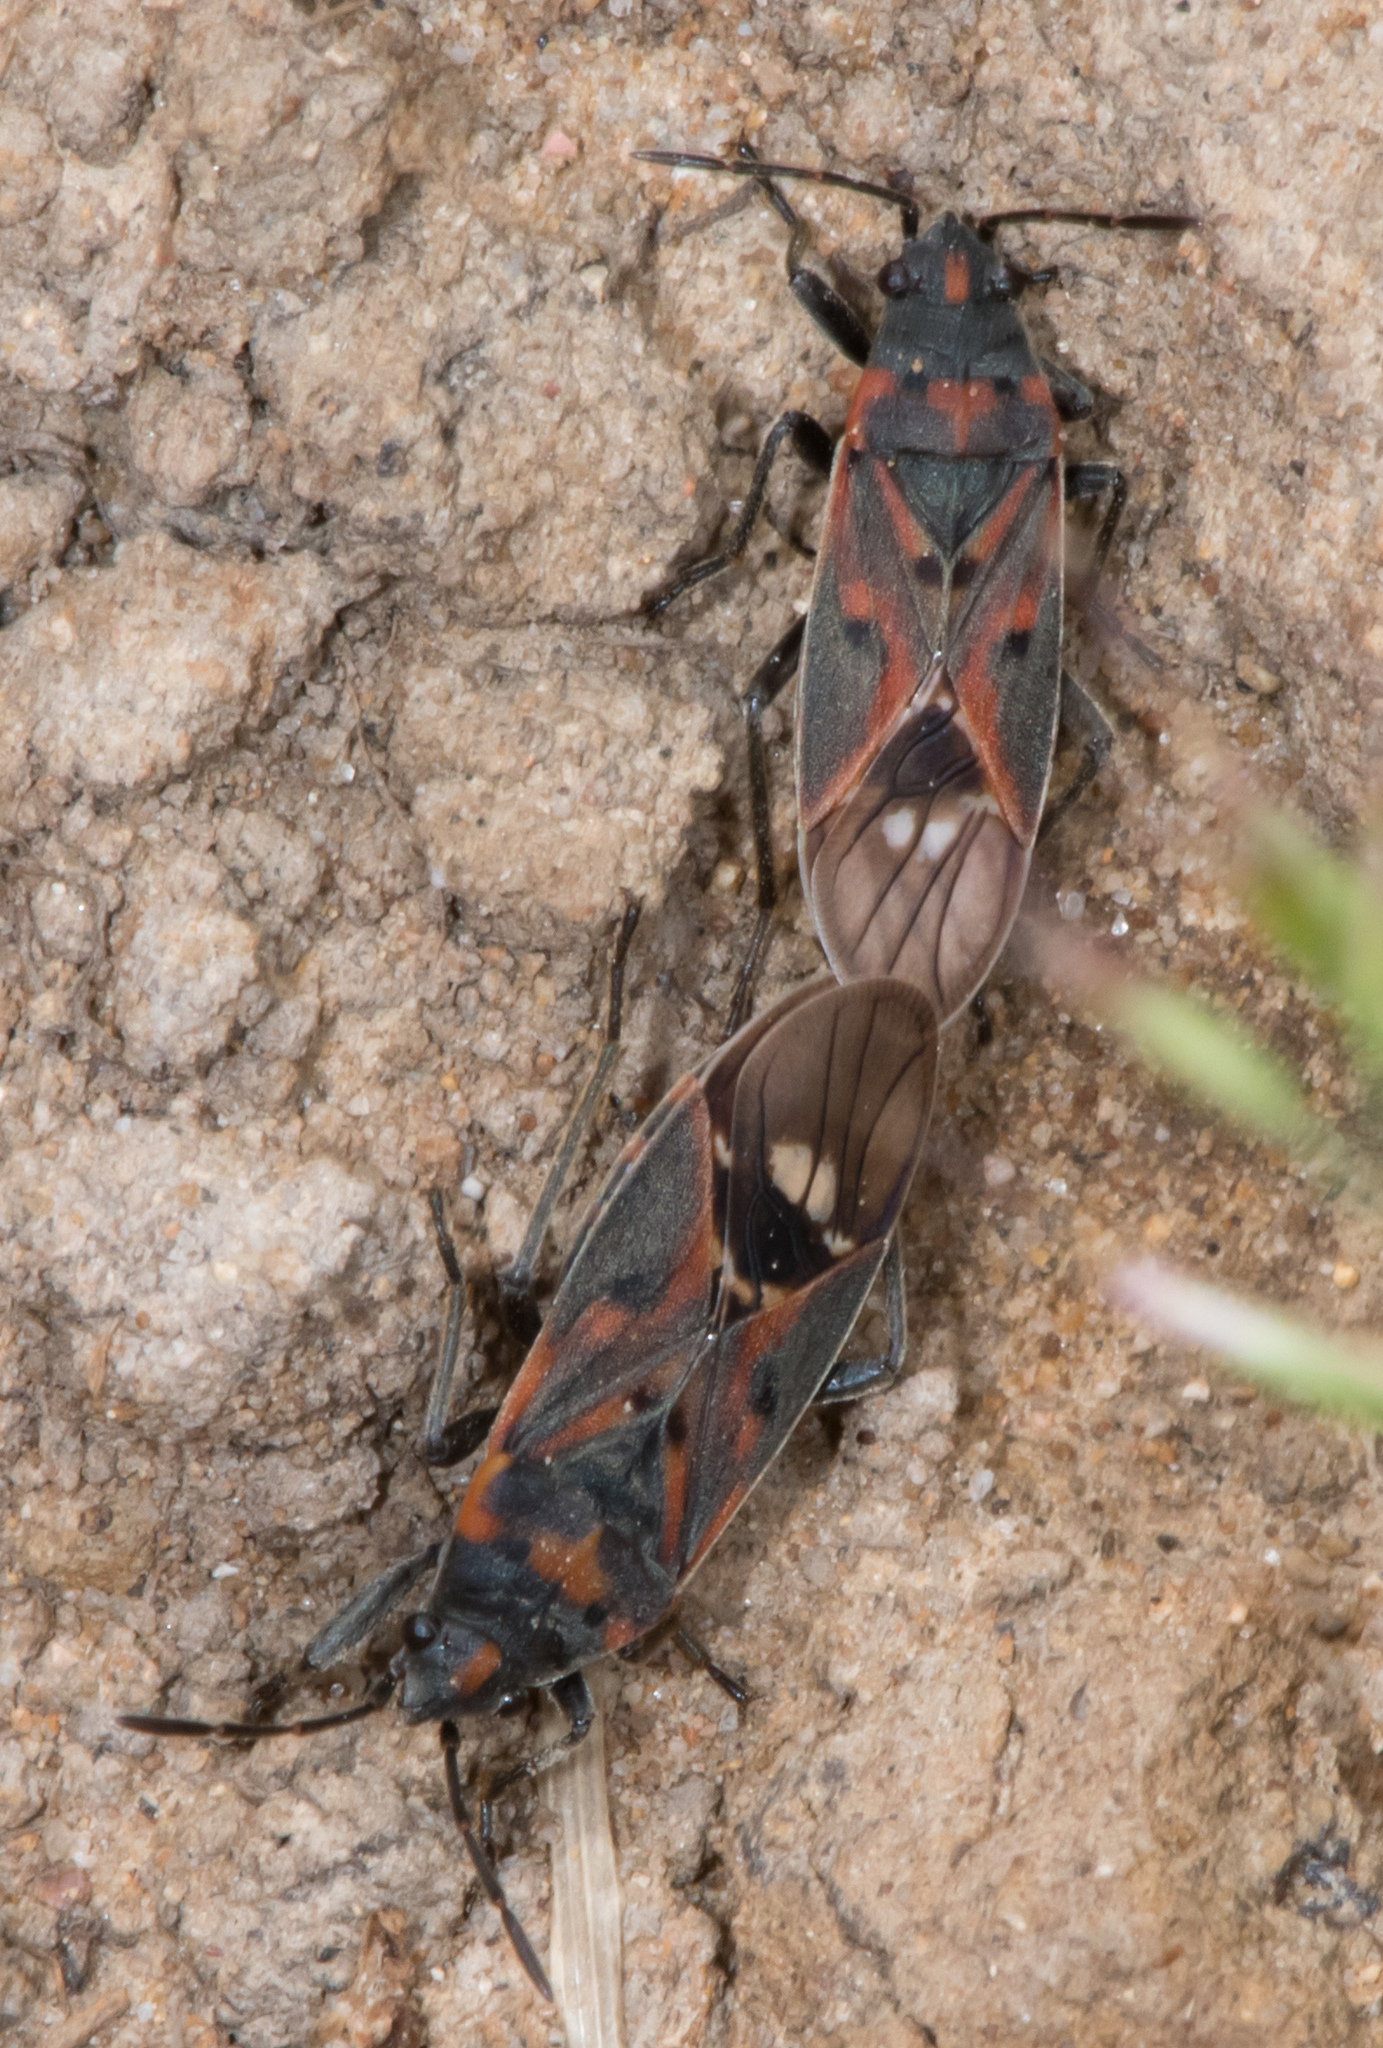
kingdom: Animalia
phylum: Arthropoda
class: Insecta
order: Hemiptera
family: Lygaeidae
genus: Lygaeus
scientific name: Lygaeus truculentus
